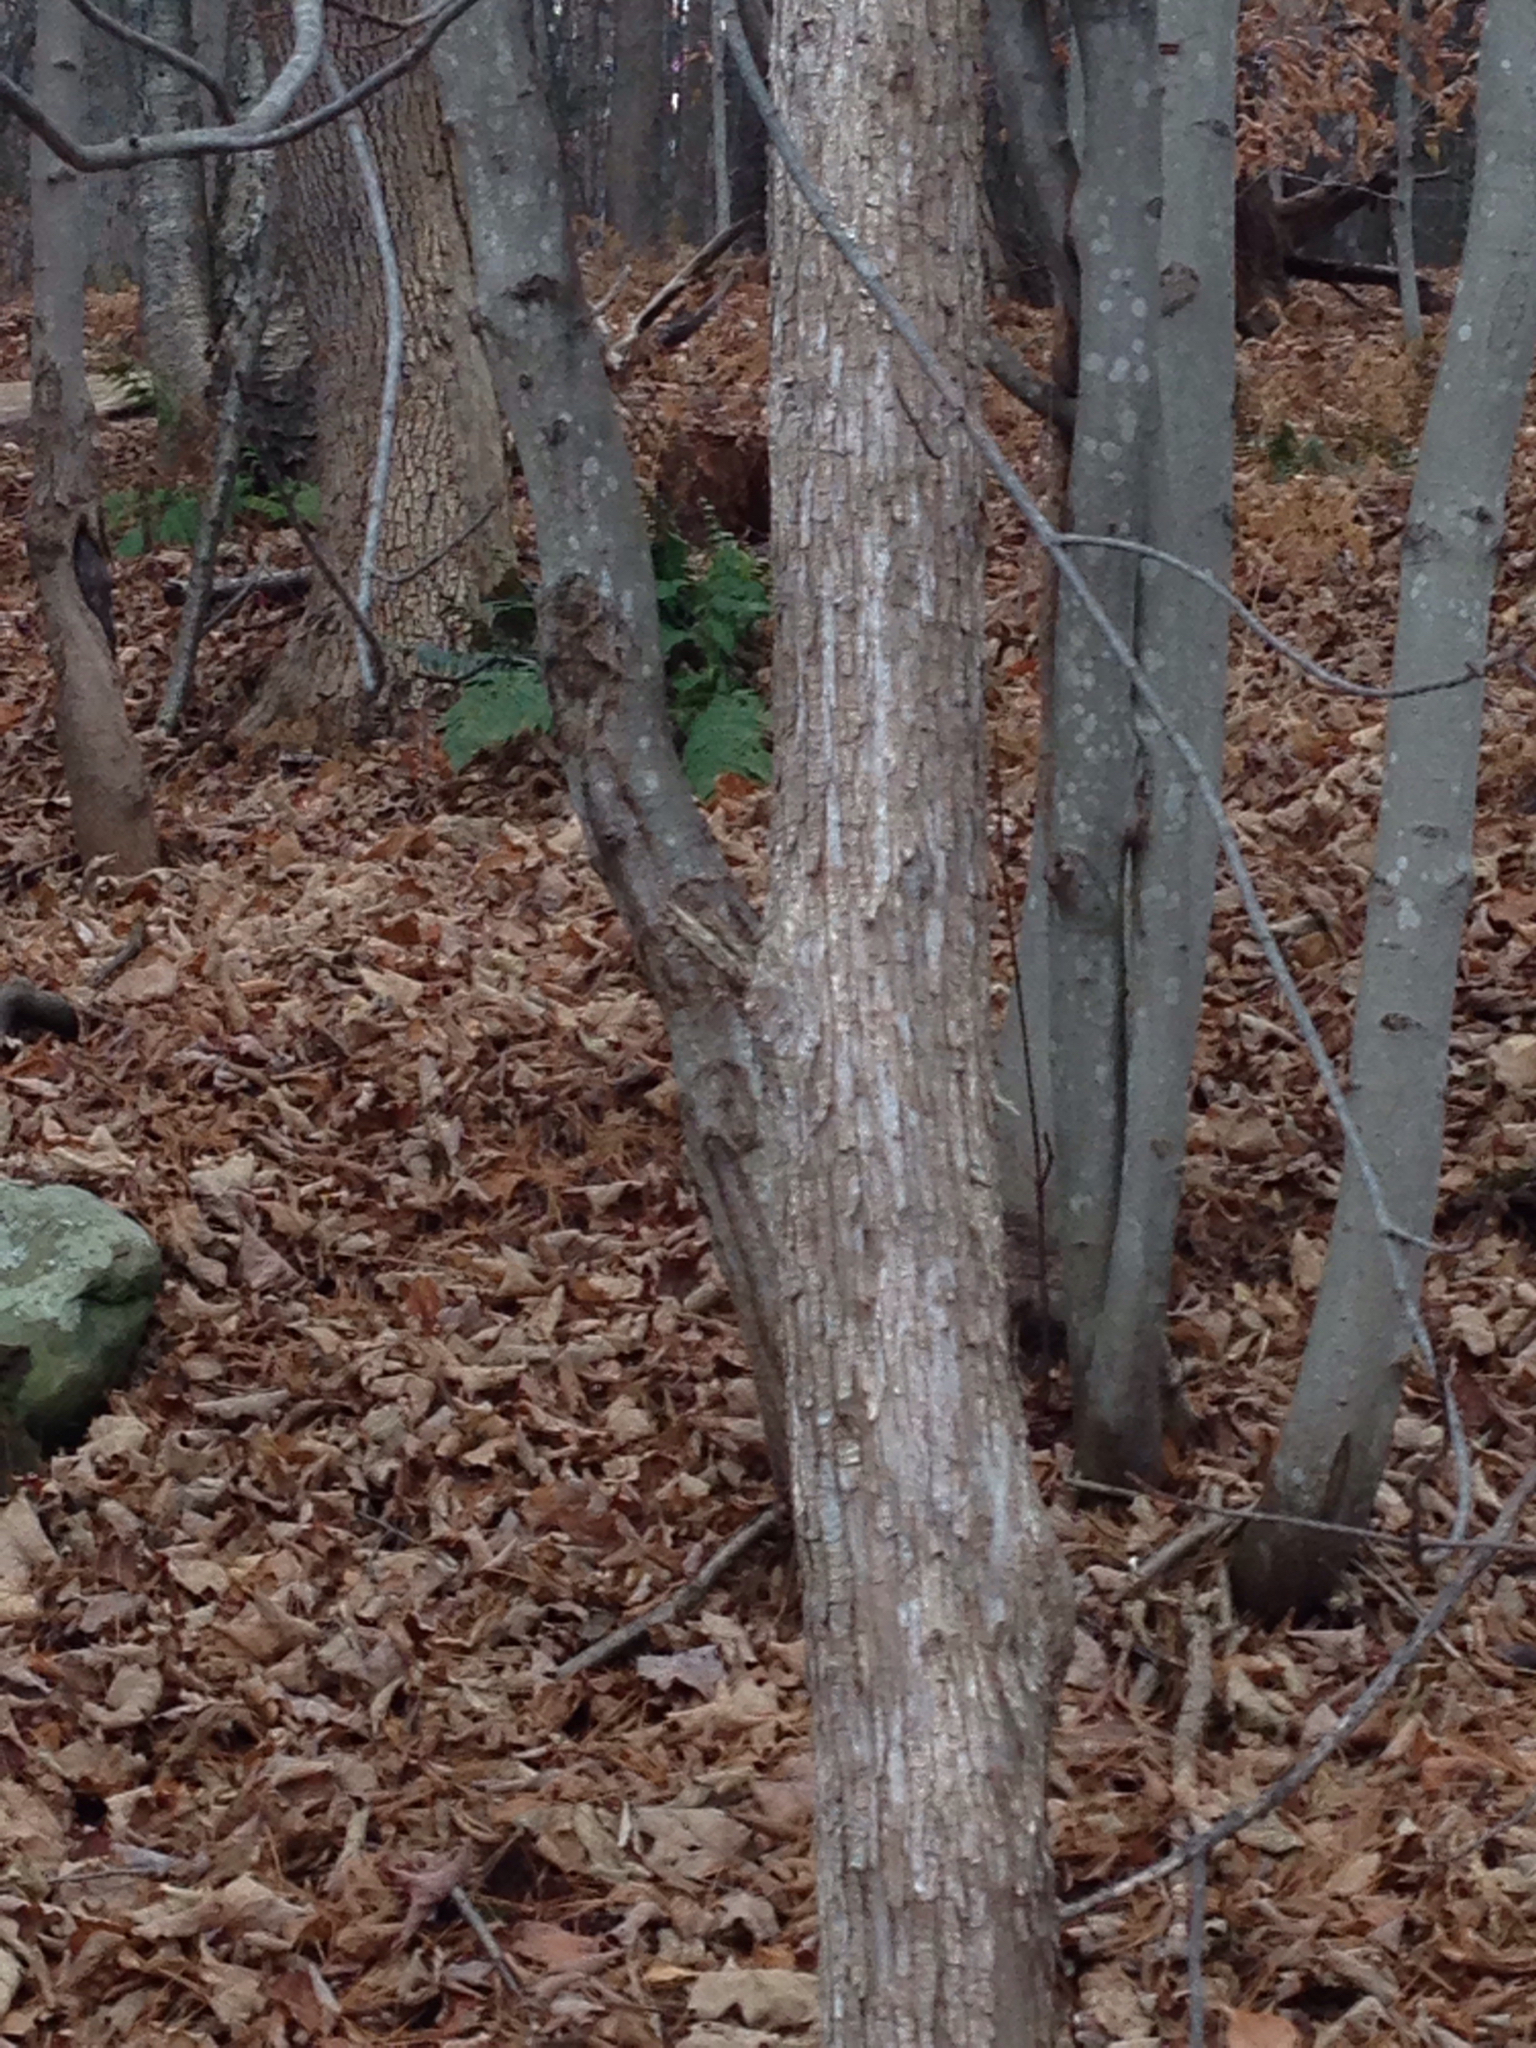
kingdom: Plantae
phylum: Tracheophyta
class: Magnoliopsida
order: Fagales
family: Betulaceae
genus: Ostrya
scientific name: Ostrya virginiana
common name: Ironwood
